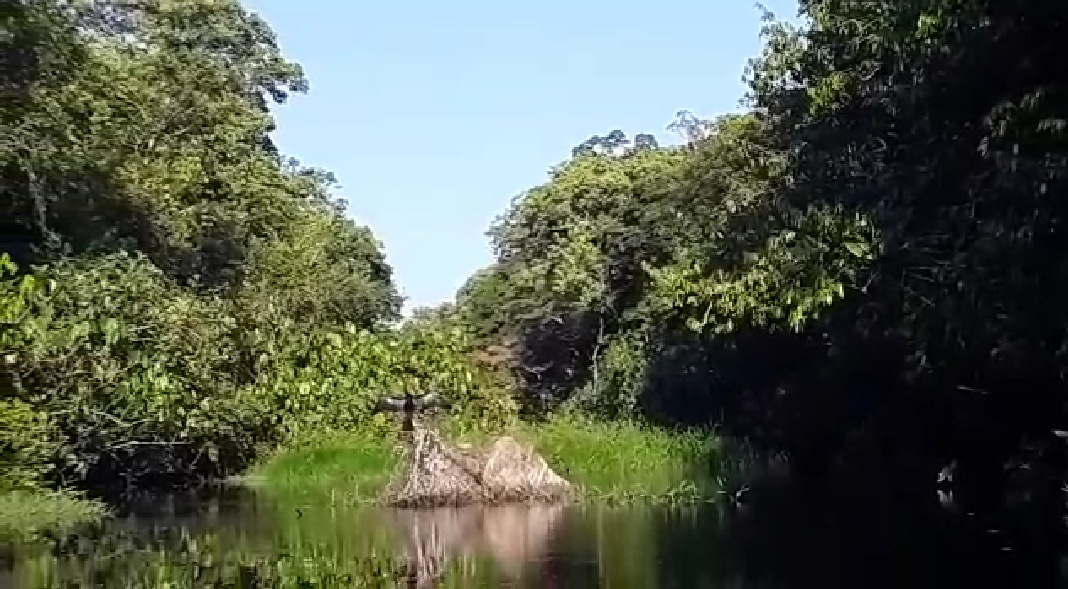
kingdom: Animalia
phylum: Chordata
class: Aves
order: Suliformes
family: Anhingidae
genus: Anhinga
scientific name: Anhinga anhinga
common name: Anhinga
